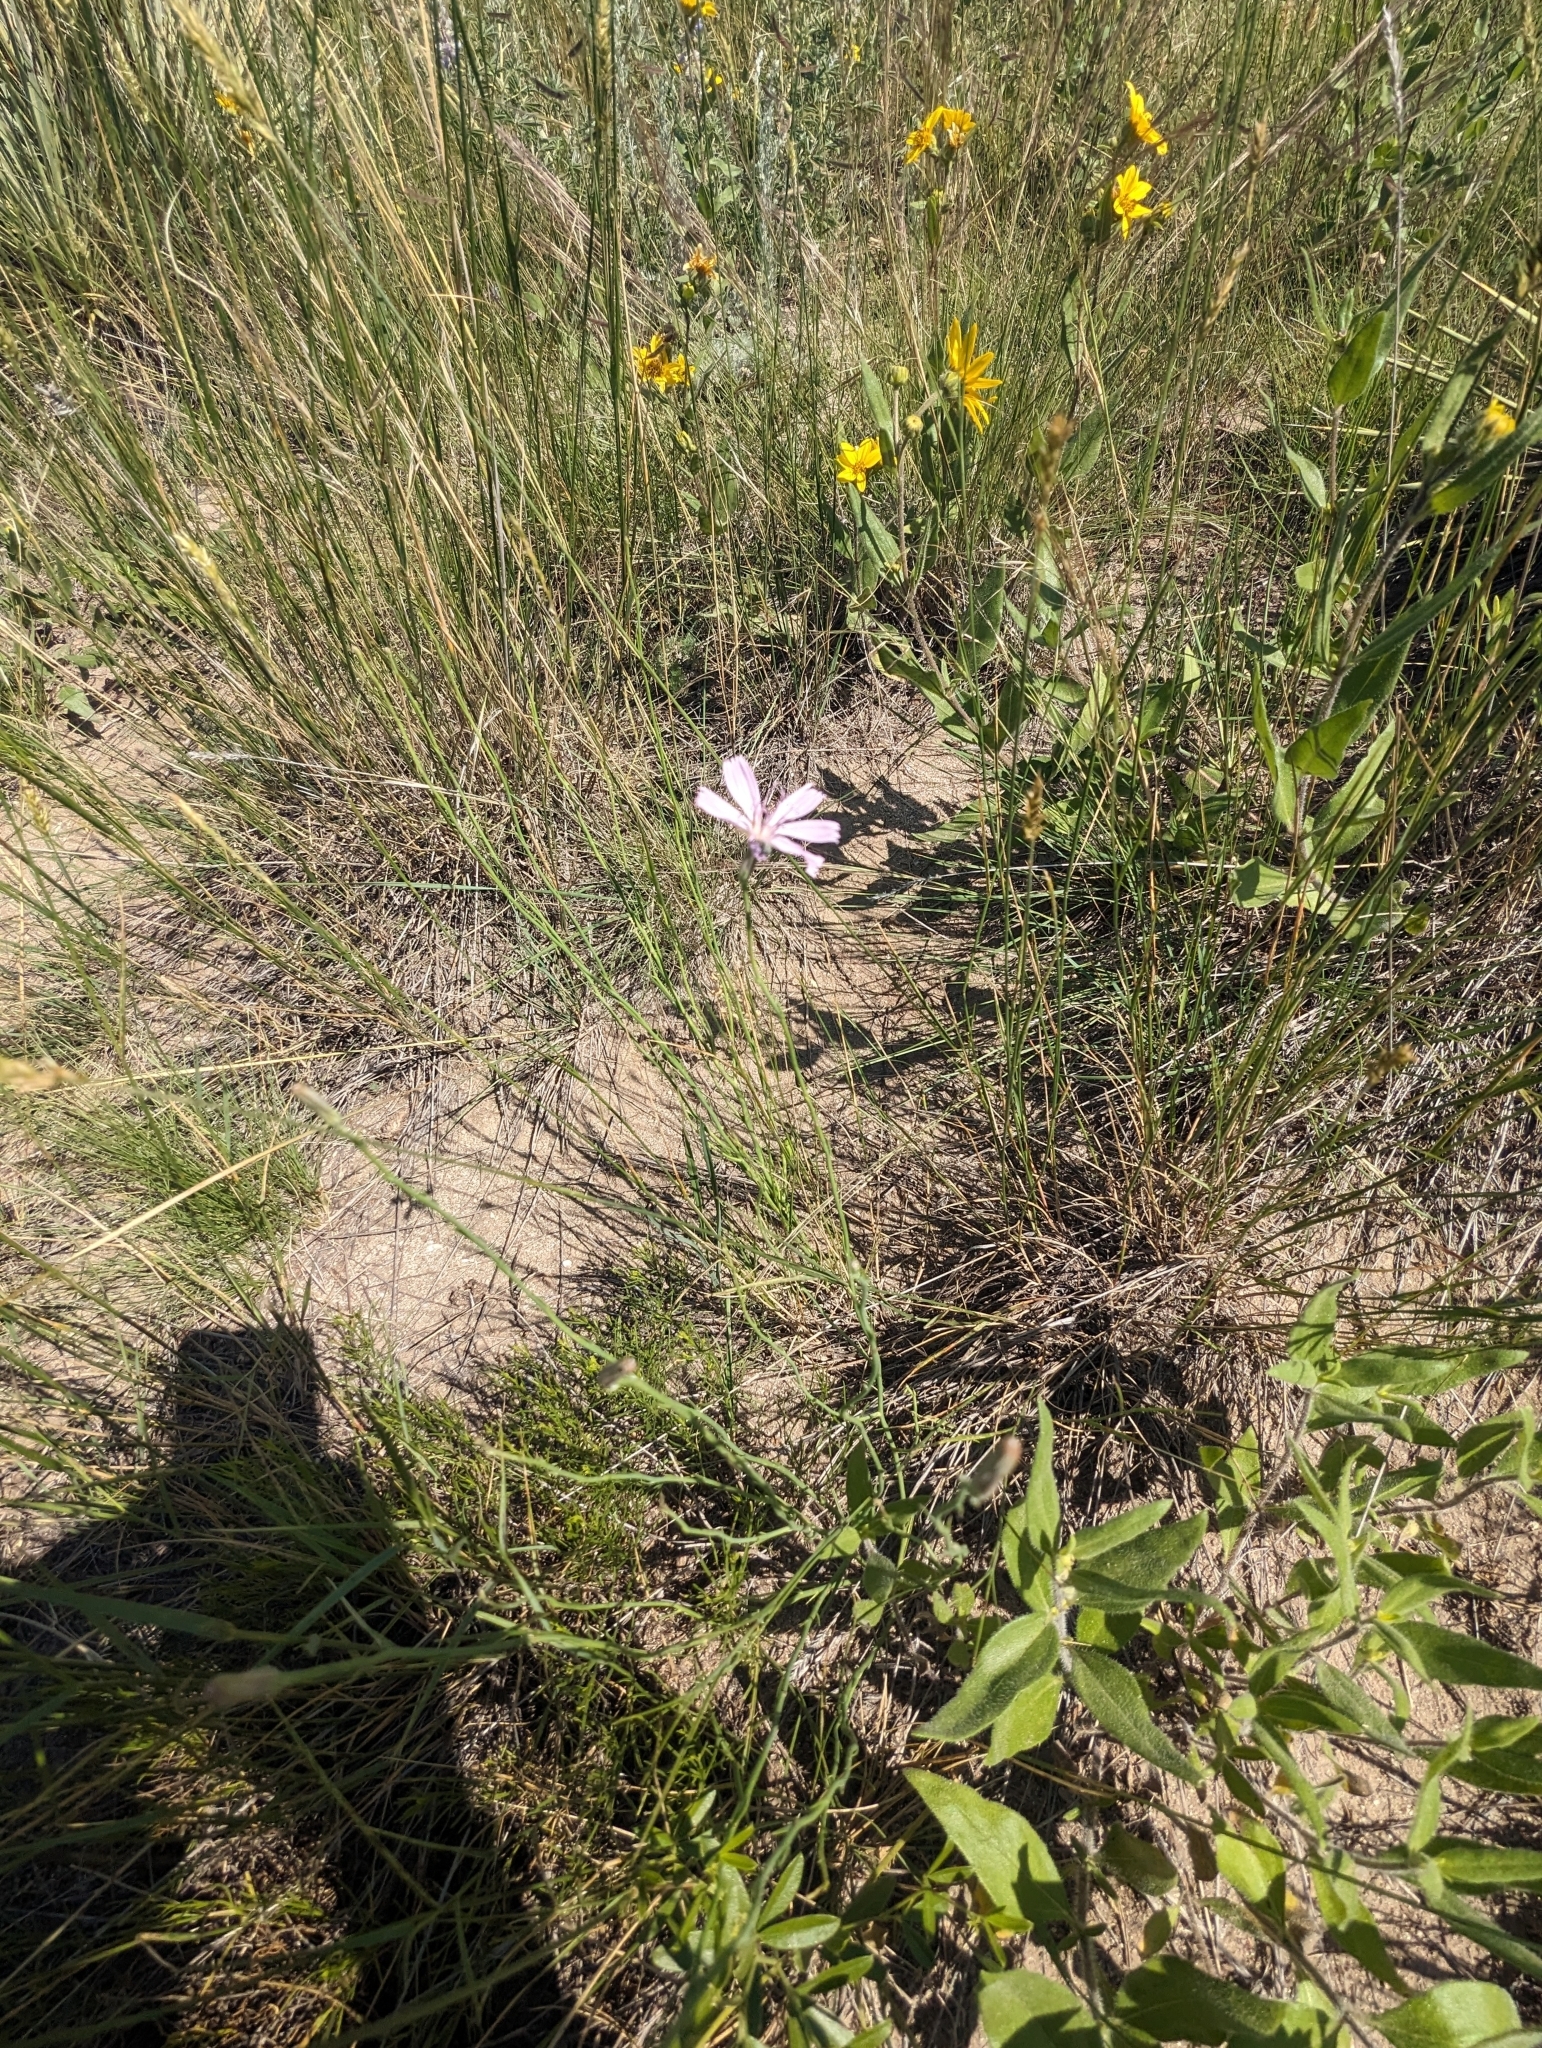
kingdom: Plantae
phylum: Tracheophyta
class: Magnoliopsida
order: Asterales
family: Asteraceae
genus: Lygodesmia
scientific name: Lygodesmia juncea
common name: Common skeletonweed
